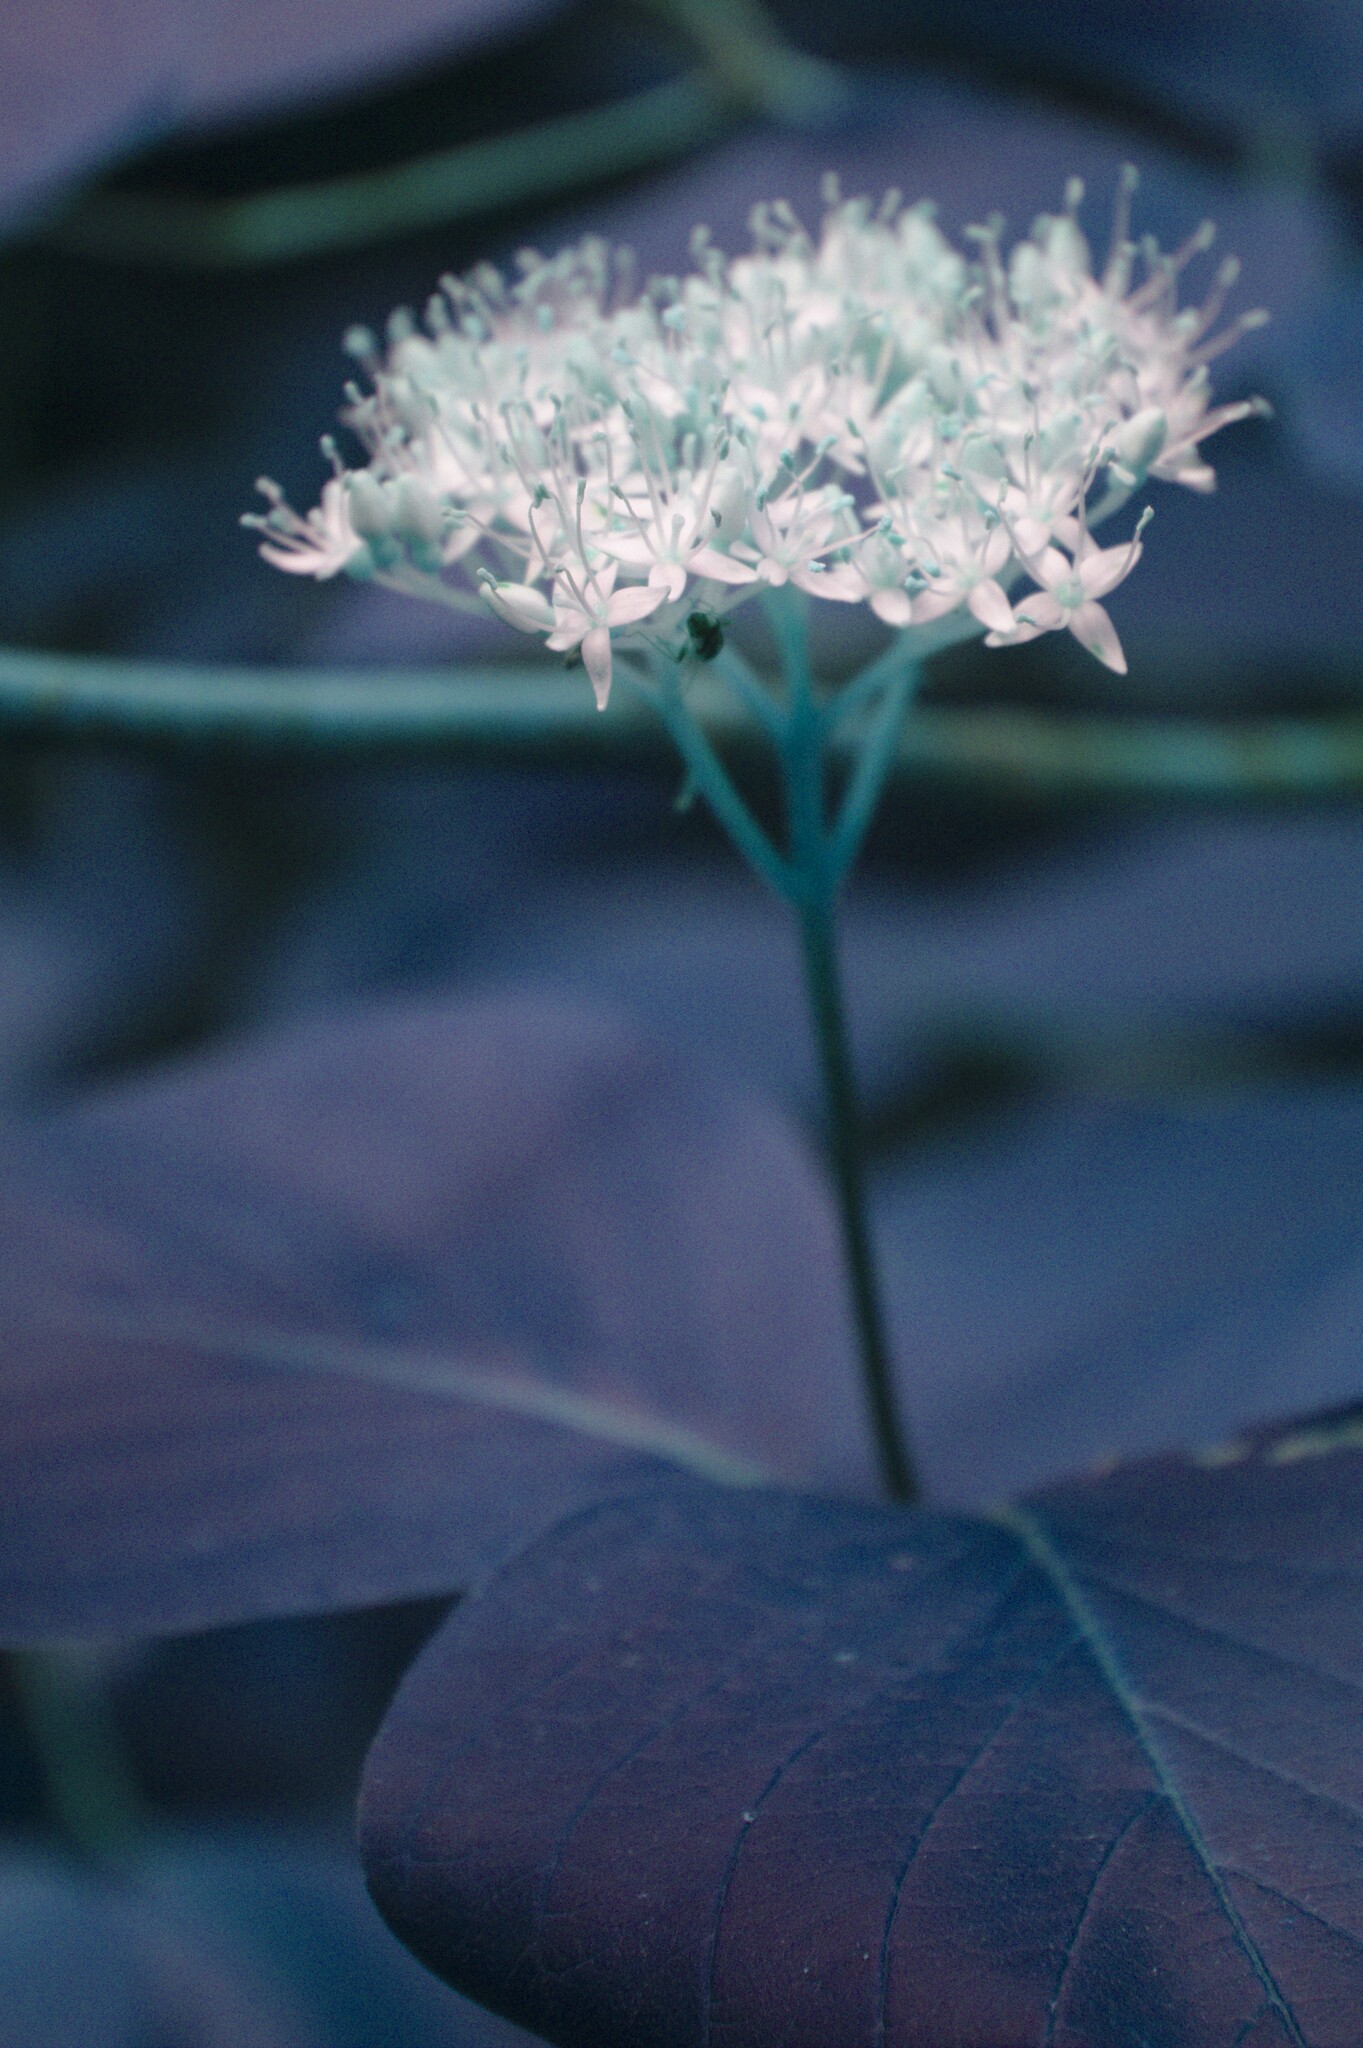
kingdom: Plantae
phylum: Tracheophyta
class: Magnoliopsida
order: Cornales
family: Cornaceae
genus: Cornus
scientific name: Cornus rugosa
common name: Round-leaf dogwood
